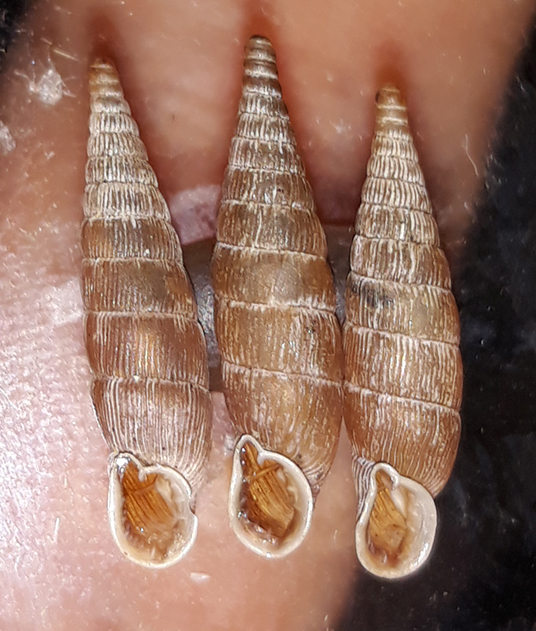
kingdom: Animalia
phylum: Mollusca
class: Gastropoda
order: Stylommatophora
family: Clausiliidae
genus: Laciniaria
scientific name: Laciniaria plicata
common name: Single-lipped door snail
